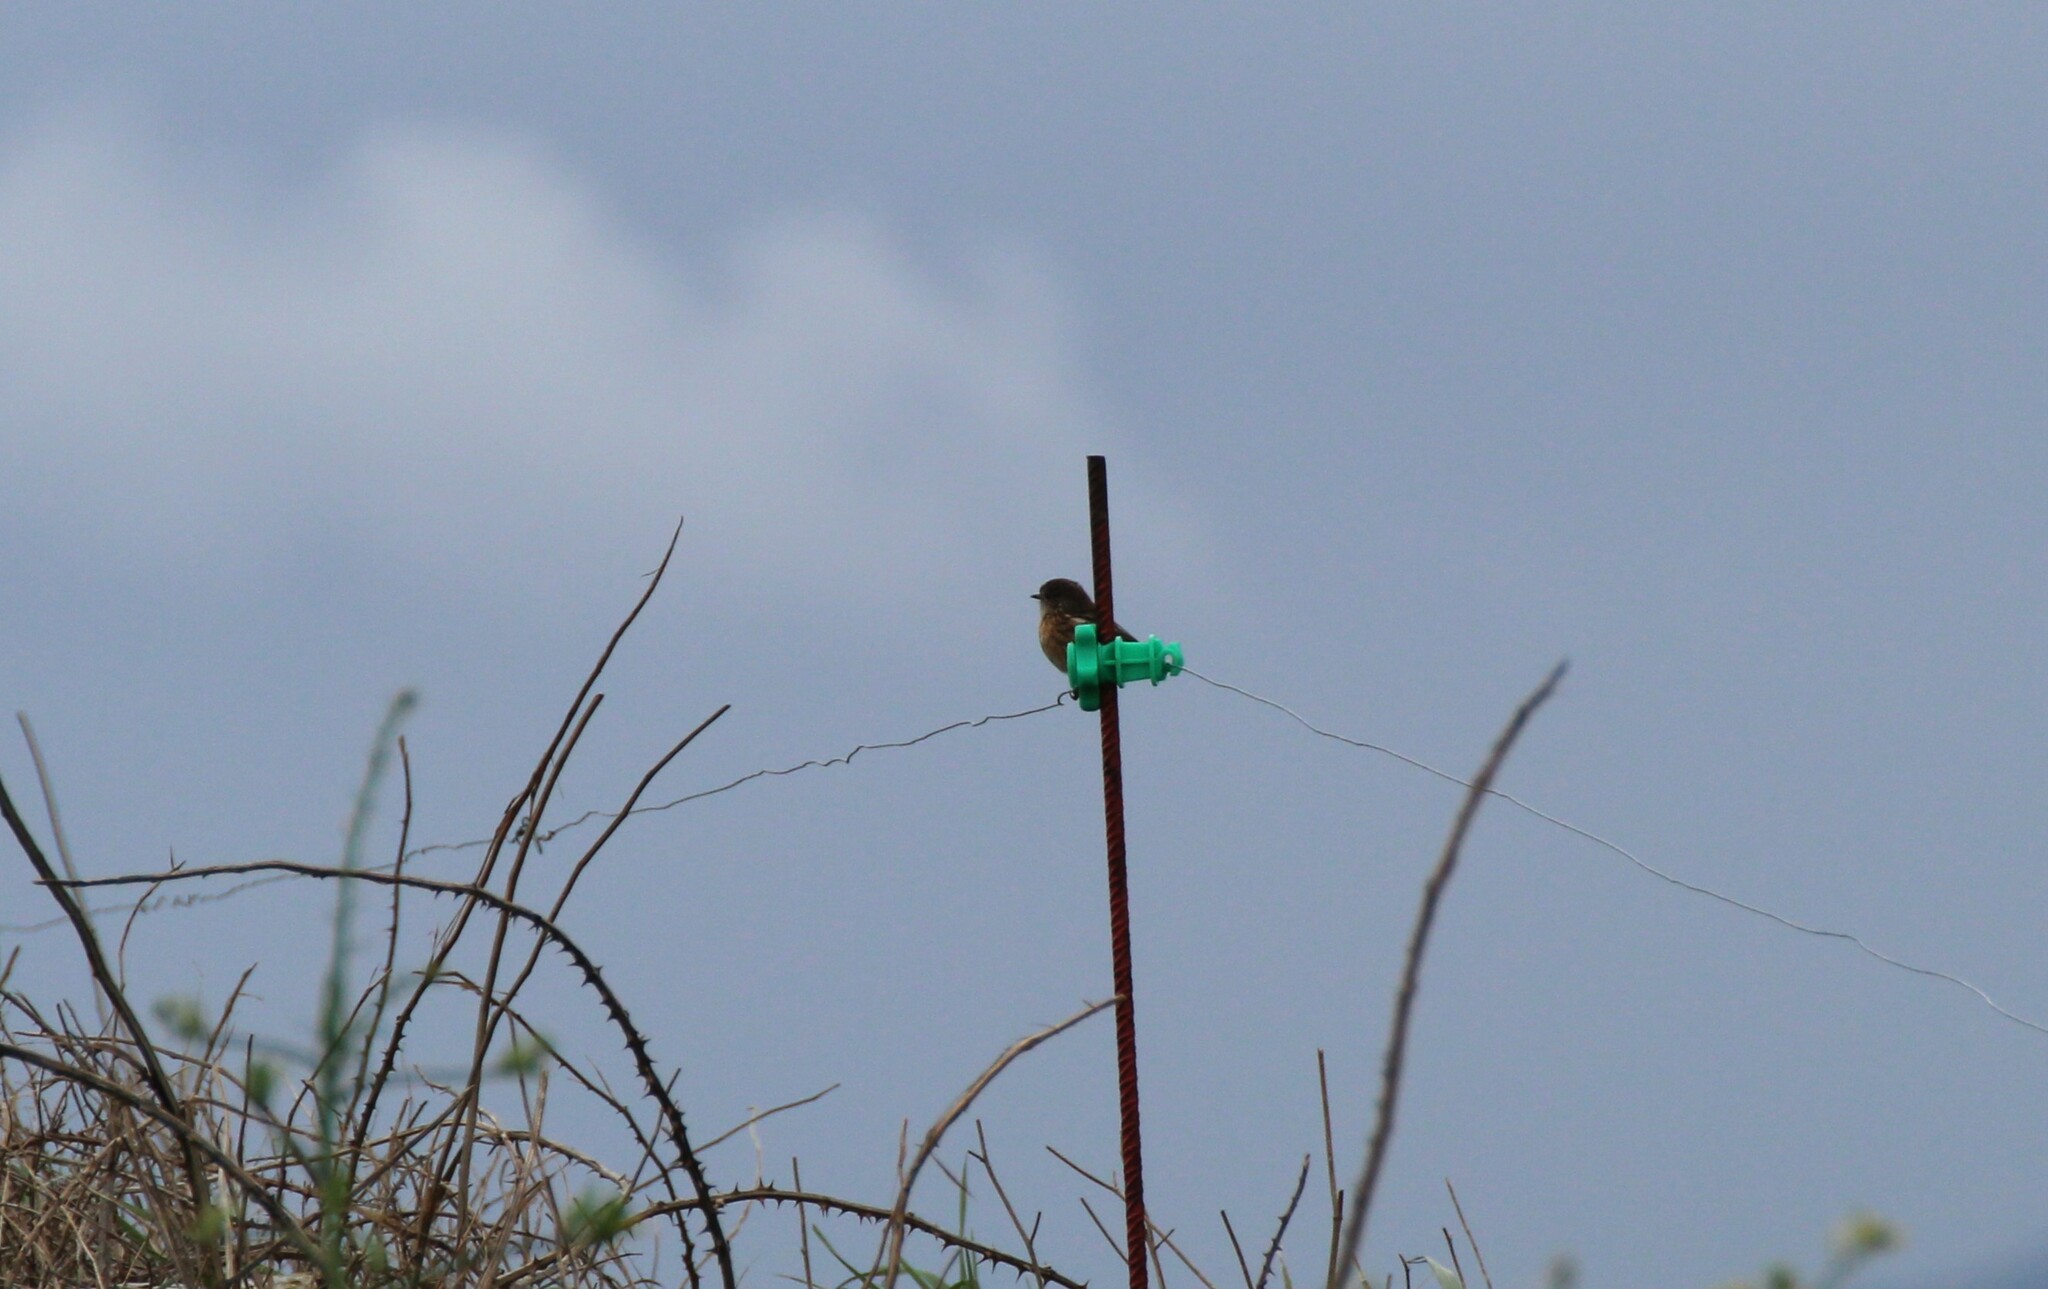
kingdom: Animalia
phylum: Chordata
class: Aves
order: Passeriformes
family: Muscicapidae
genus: Saxicola
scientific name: Saxicola rubicola
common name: European stonechat
